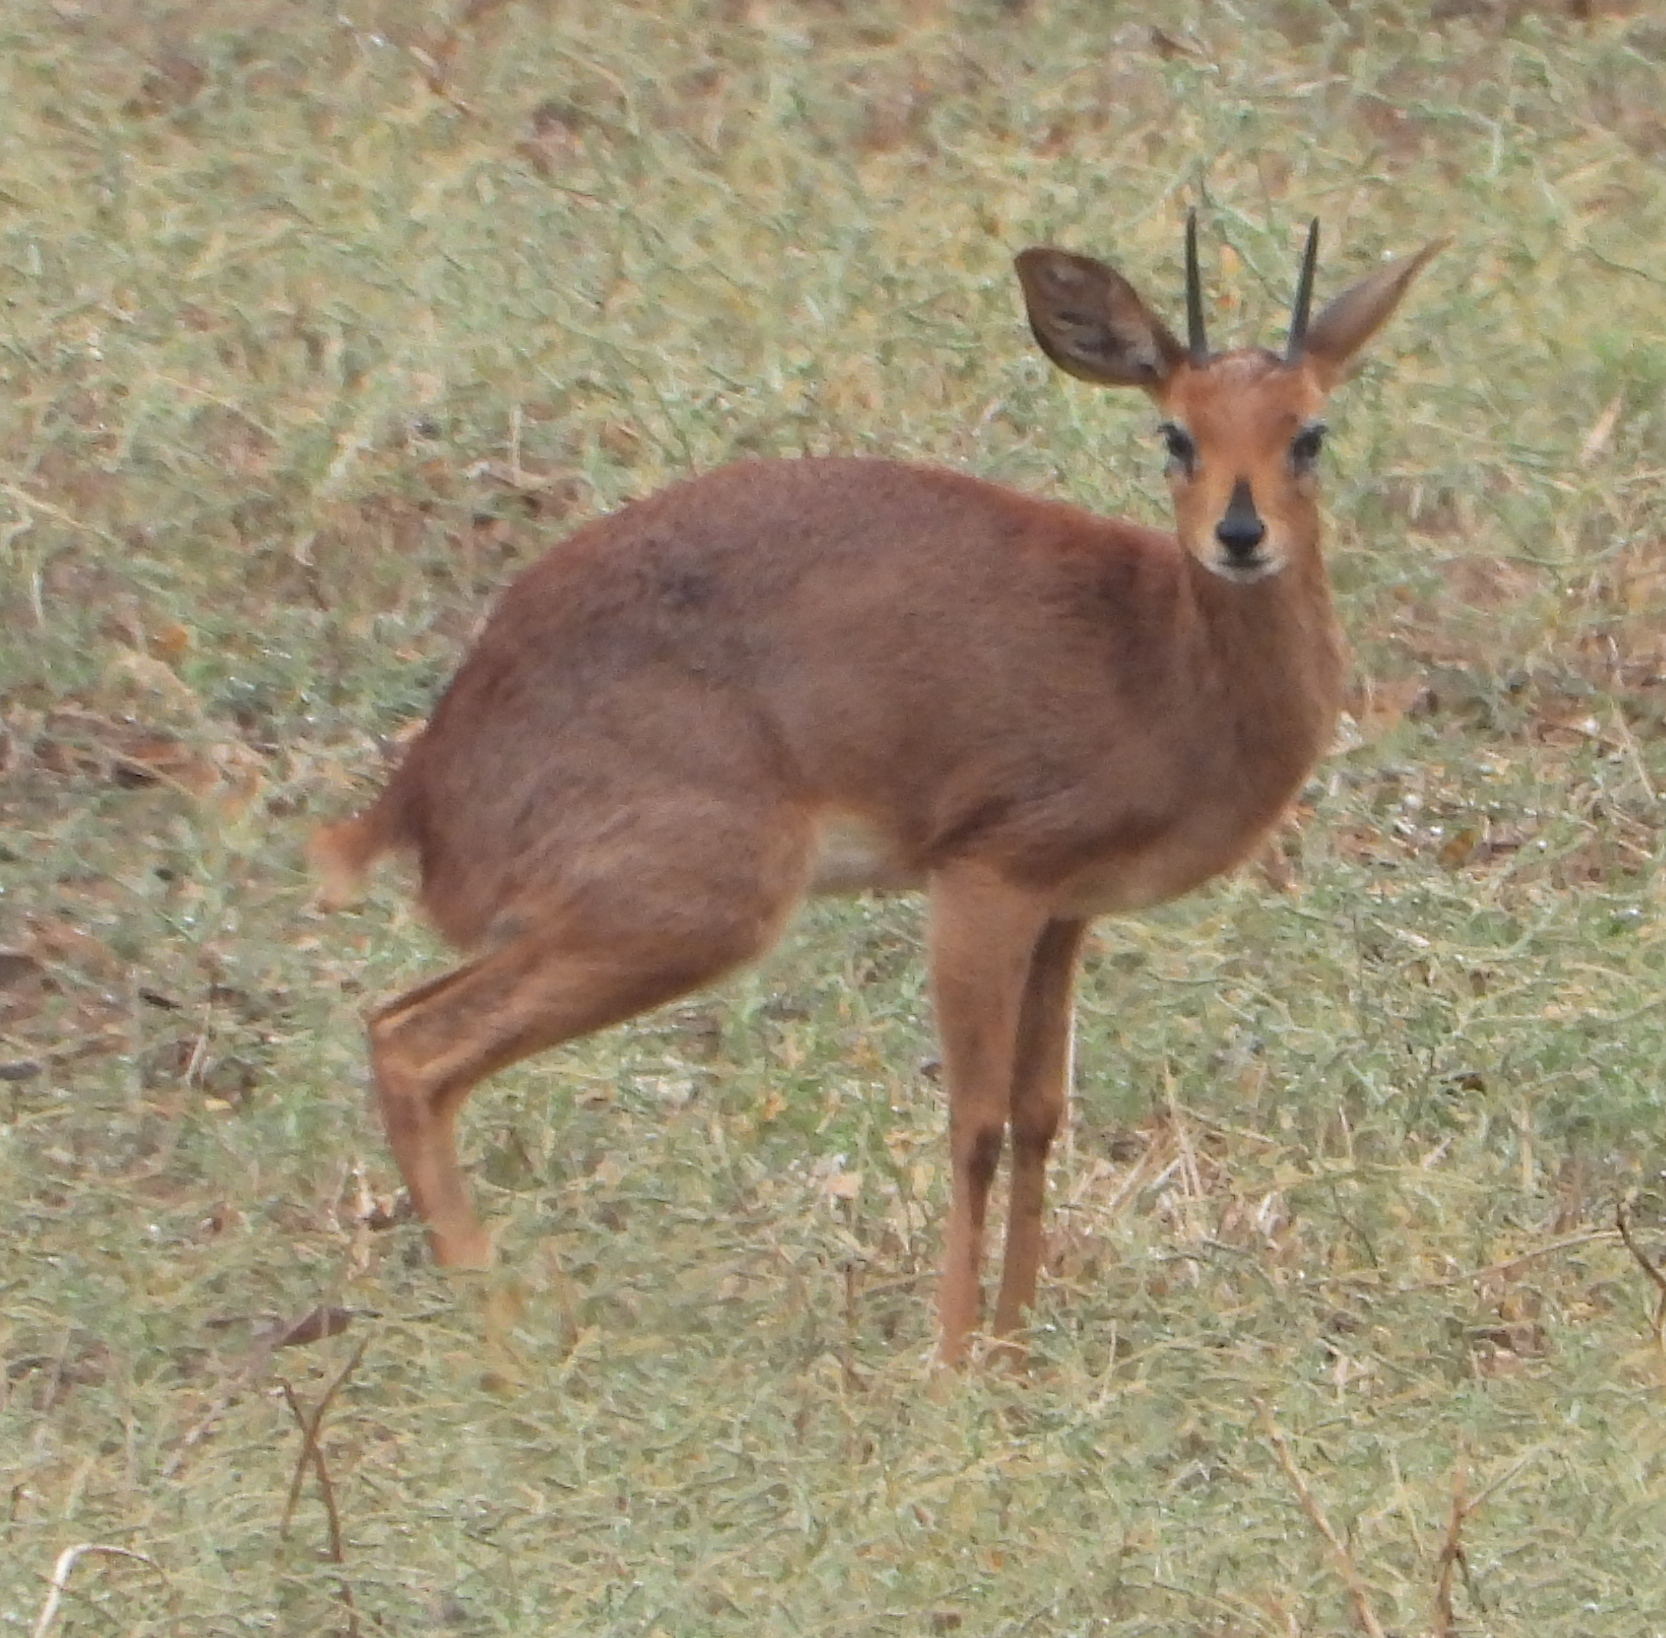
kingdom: Animalia
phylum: Chordata
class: Mammalia
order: Artiodactyla
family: Bovidae
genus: Raphicerus
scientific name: Raphicerus campestris
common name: Steenbok
